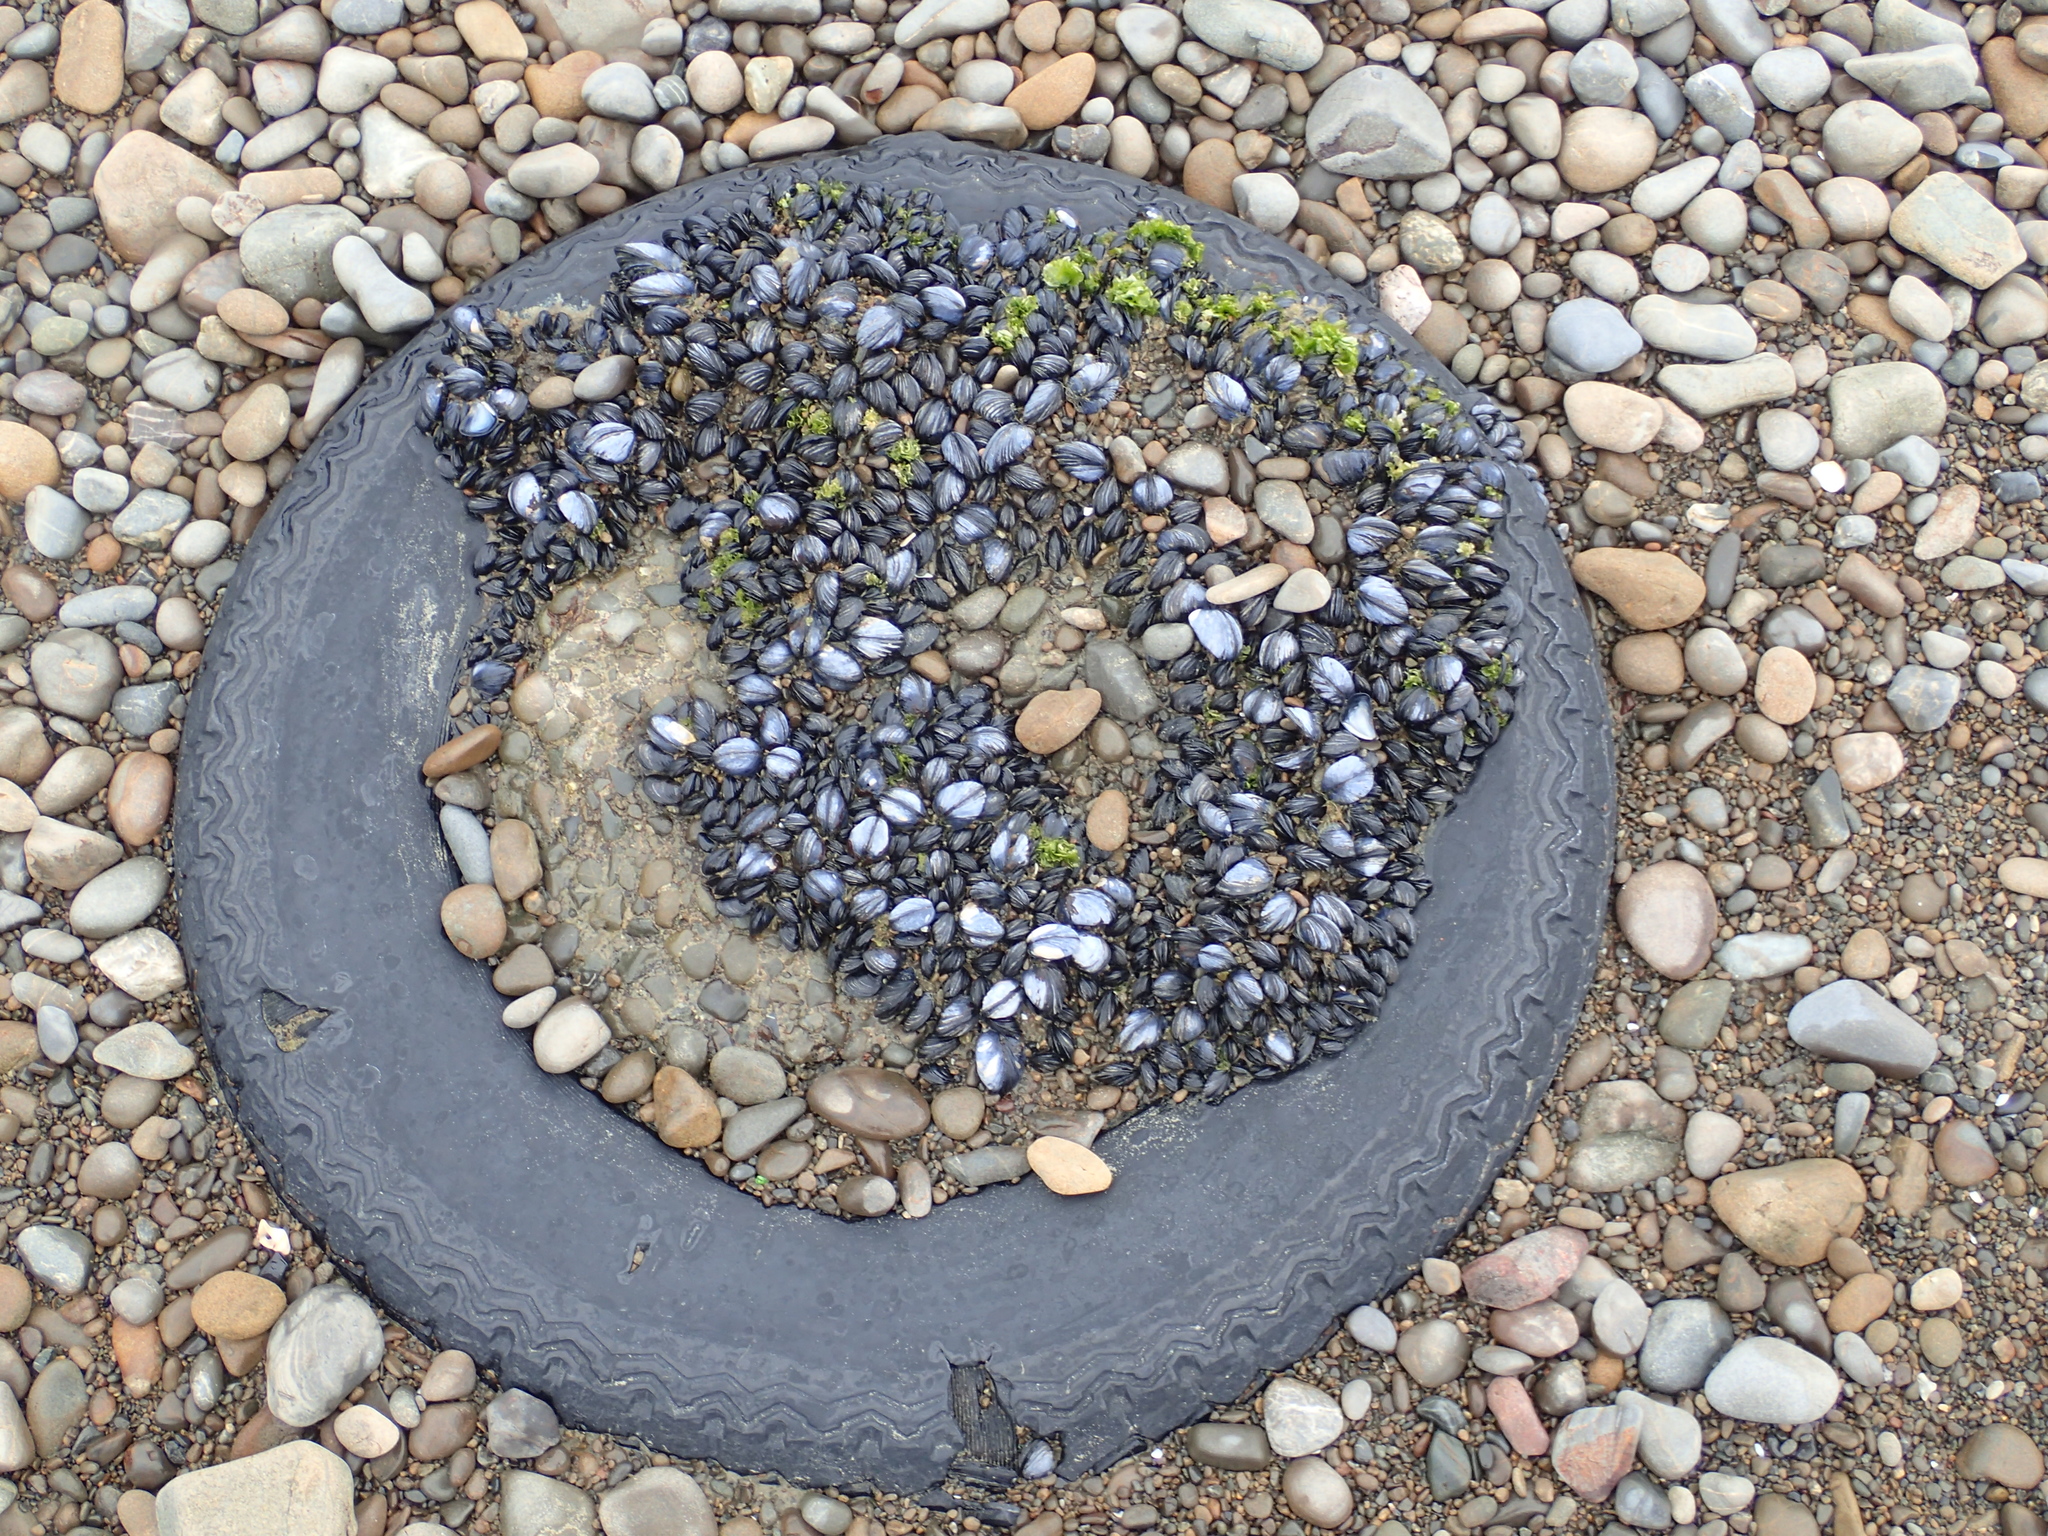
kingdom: Animalia
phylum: Mollusca
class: Bivalvia
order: Mytilida
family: Mytilidae
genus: Mytilus
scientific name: Mytilus planulatus
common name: Australian mussel
